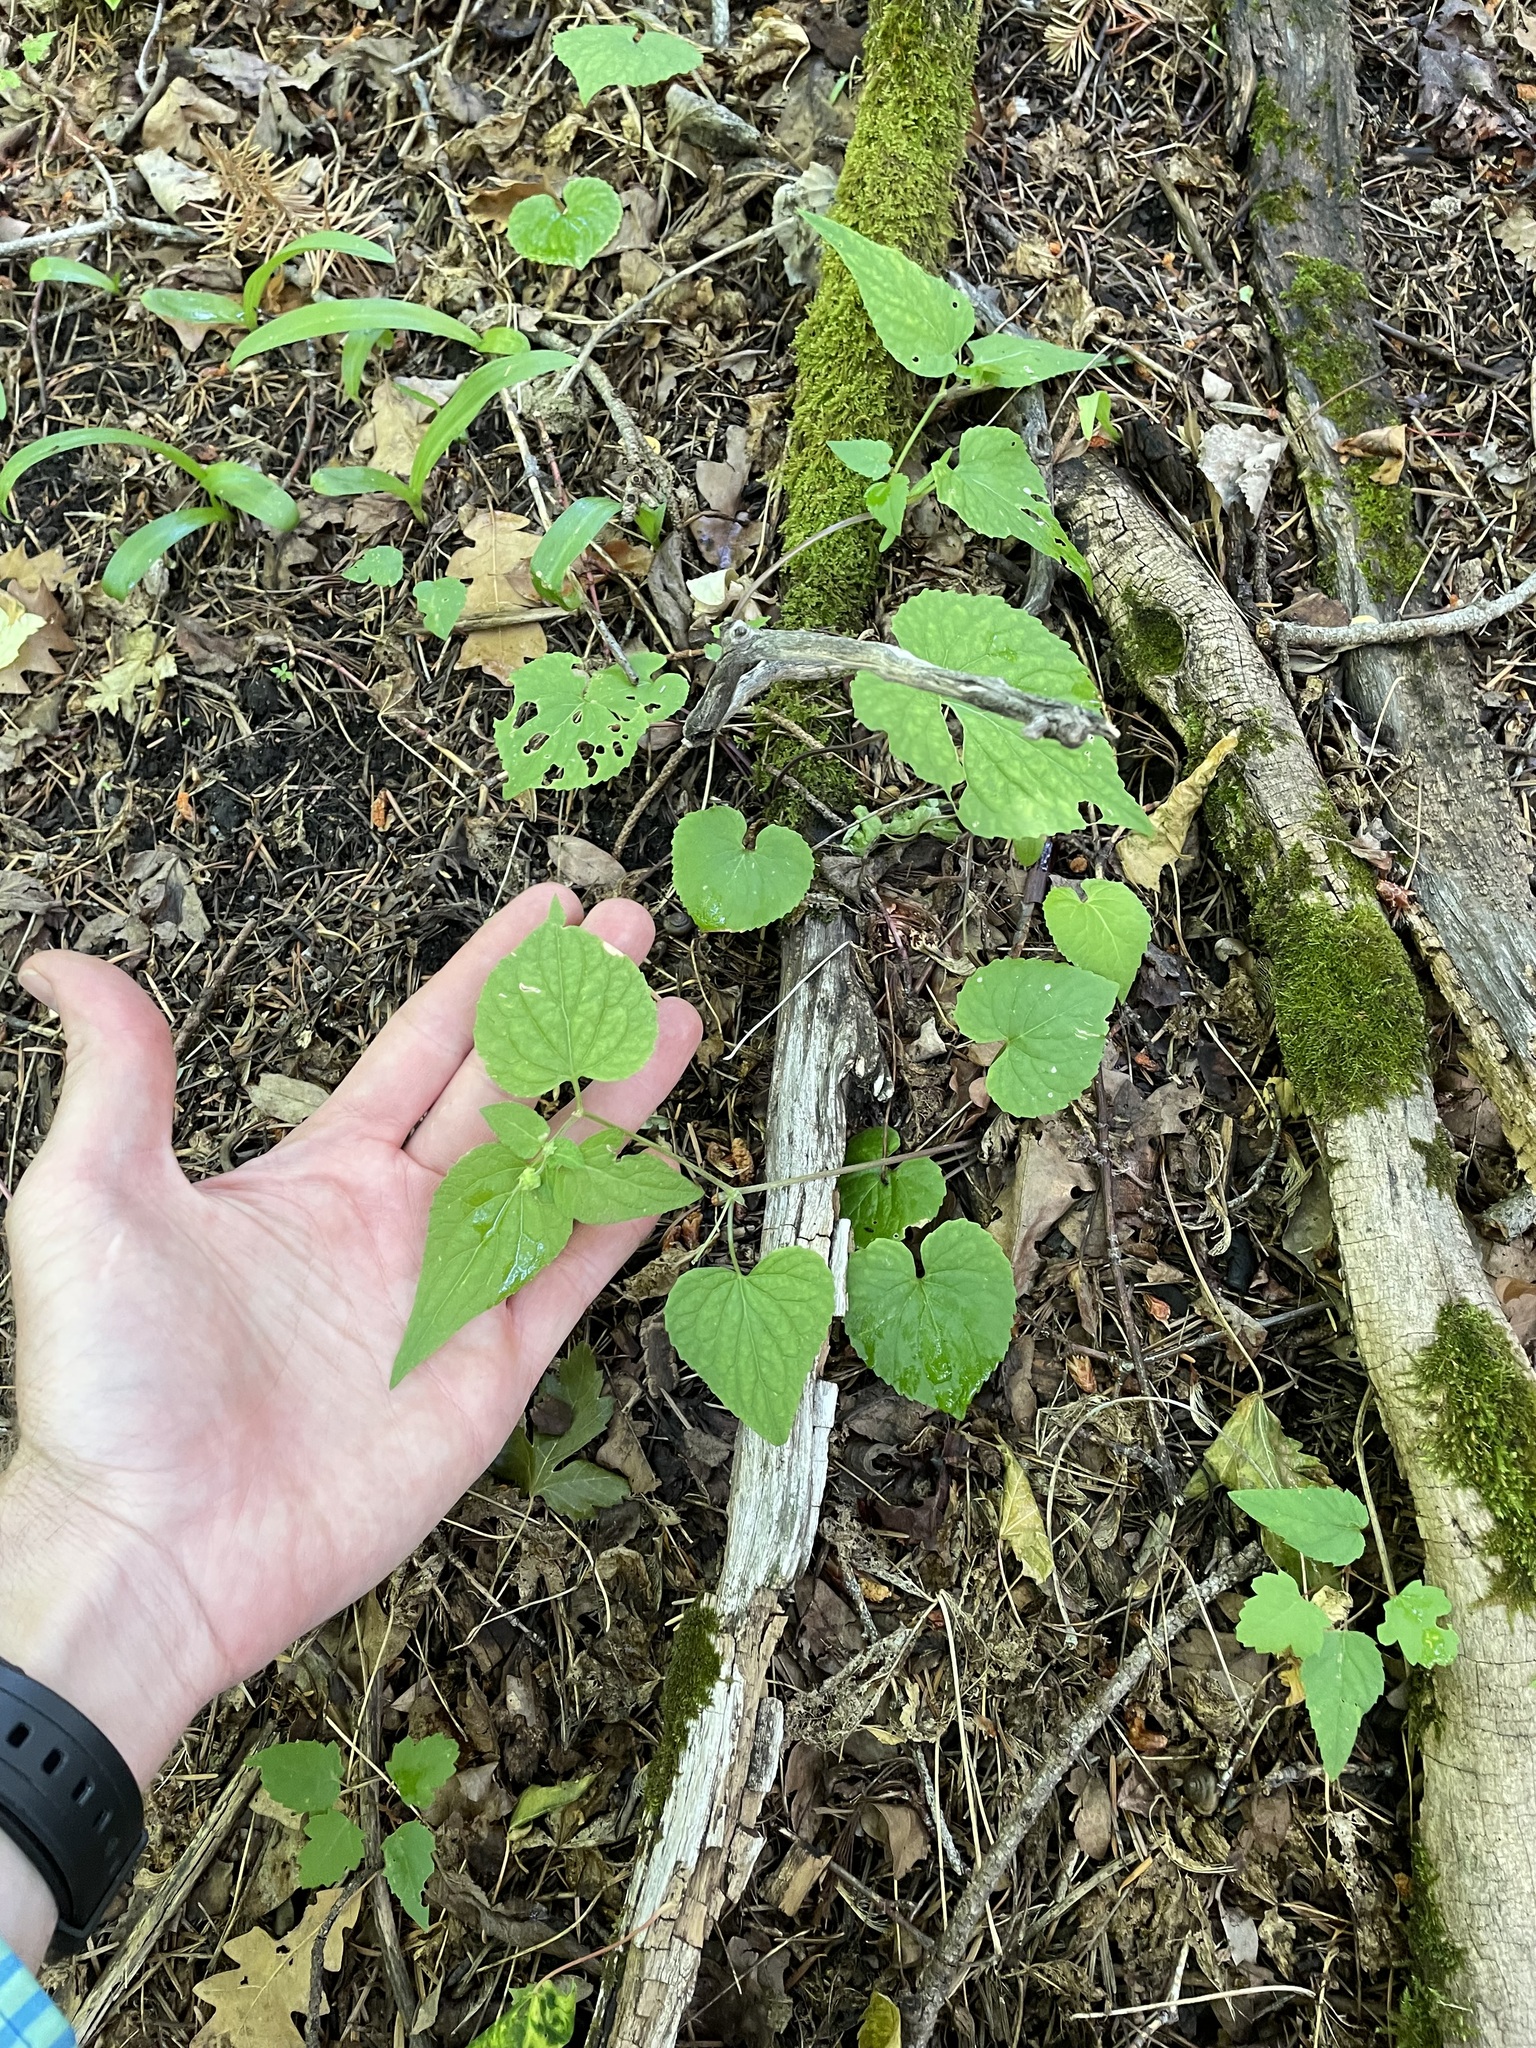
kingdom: Plantae
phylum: Tracheophyta
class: Magnoliopsida
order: Malpighiales
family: Violaceae
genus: Viola
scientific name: Viola canadensis
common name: Canada violet
